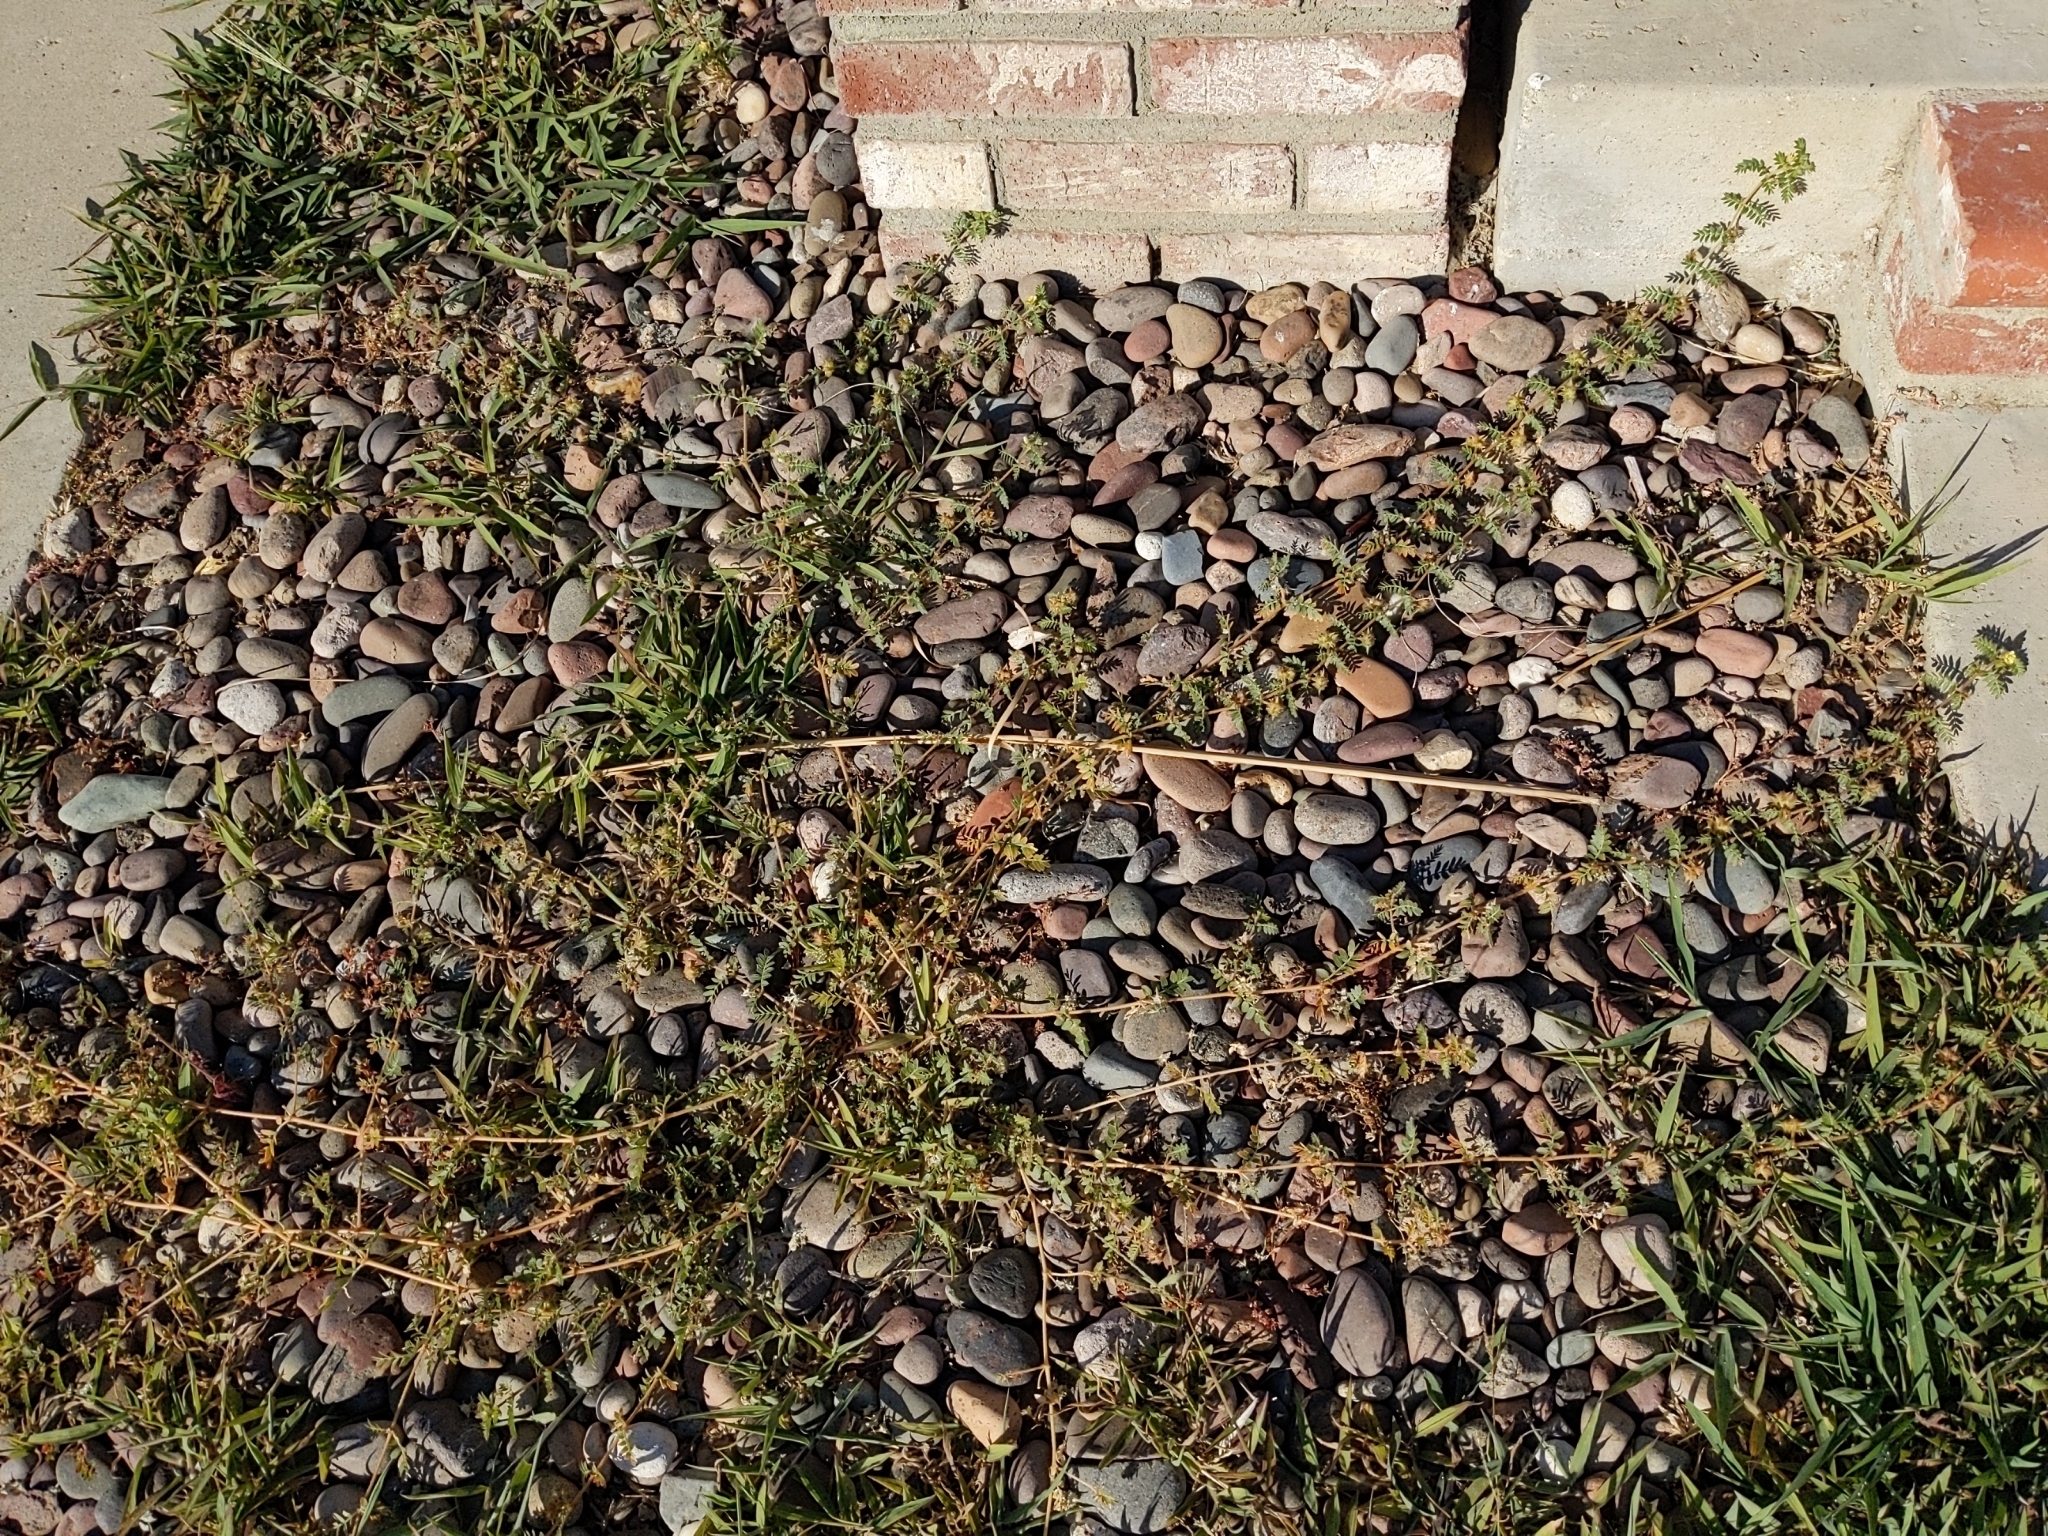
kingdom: Plantae
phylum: Tracheophyta
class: Magnoliopsida
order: Zygophyllales
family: Zygophyllaceae
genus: Tribulus
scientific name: Tribulus terrestris
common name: Puncturevine
